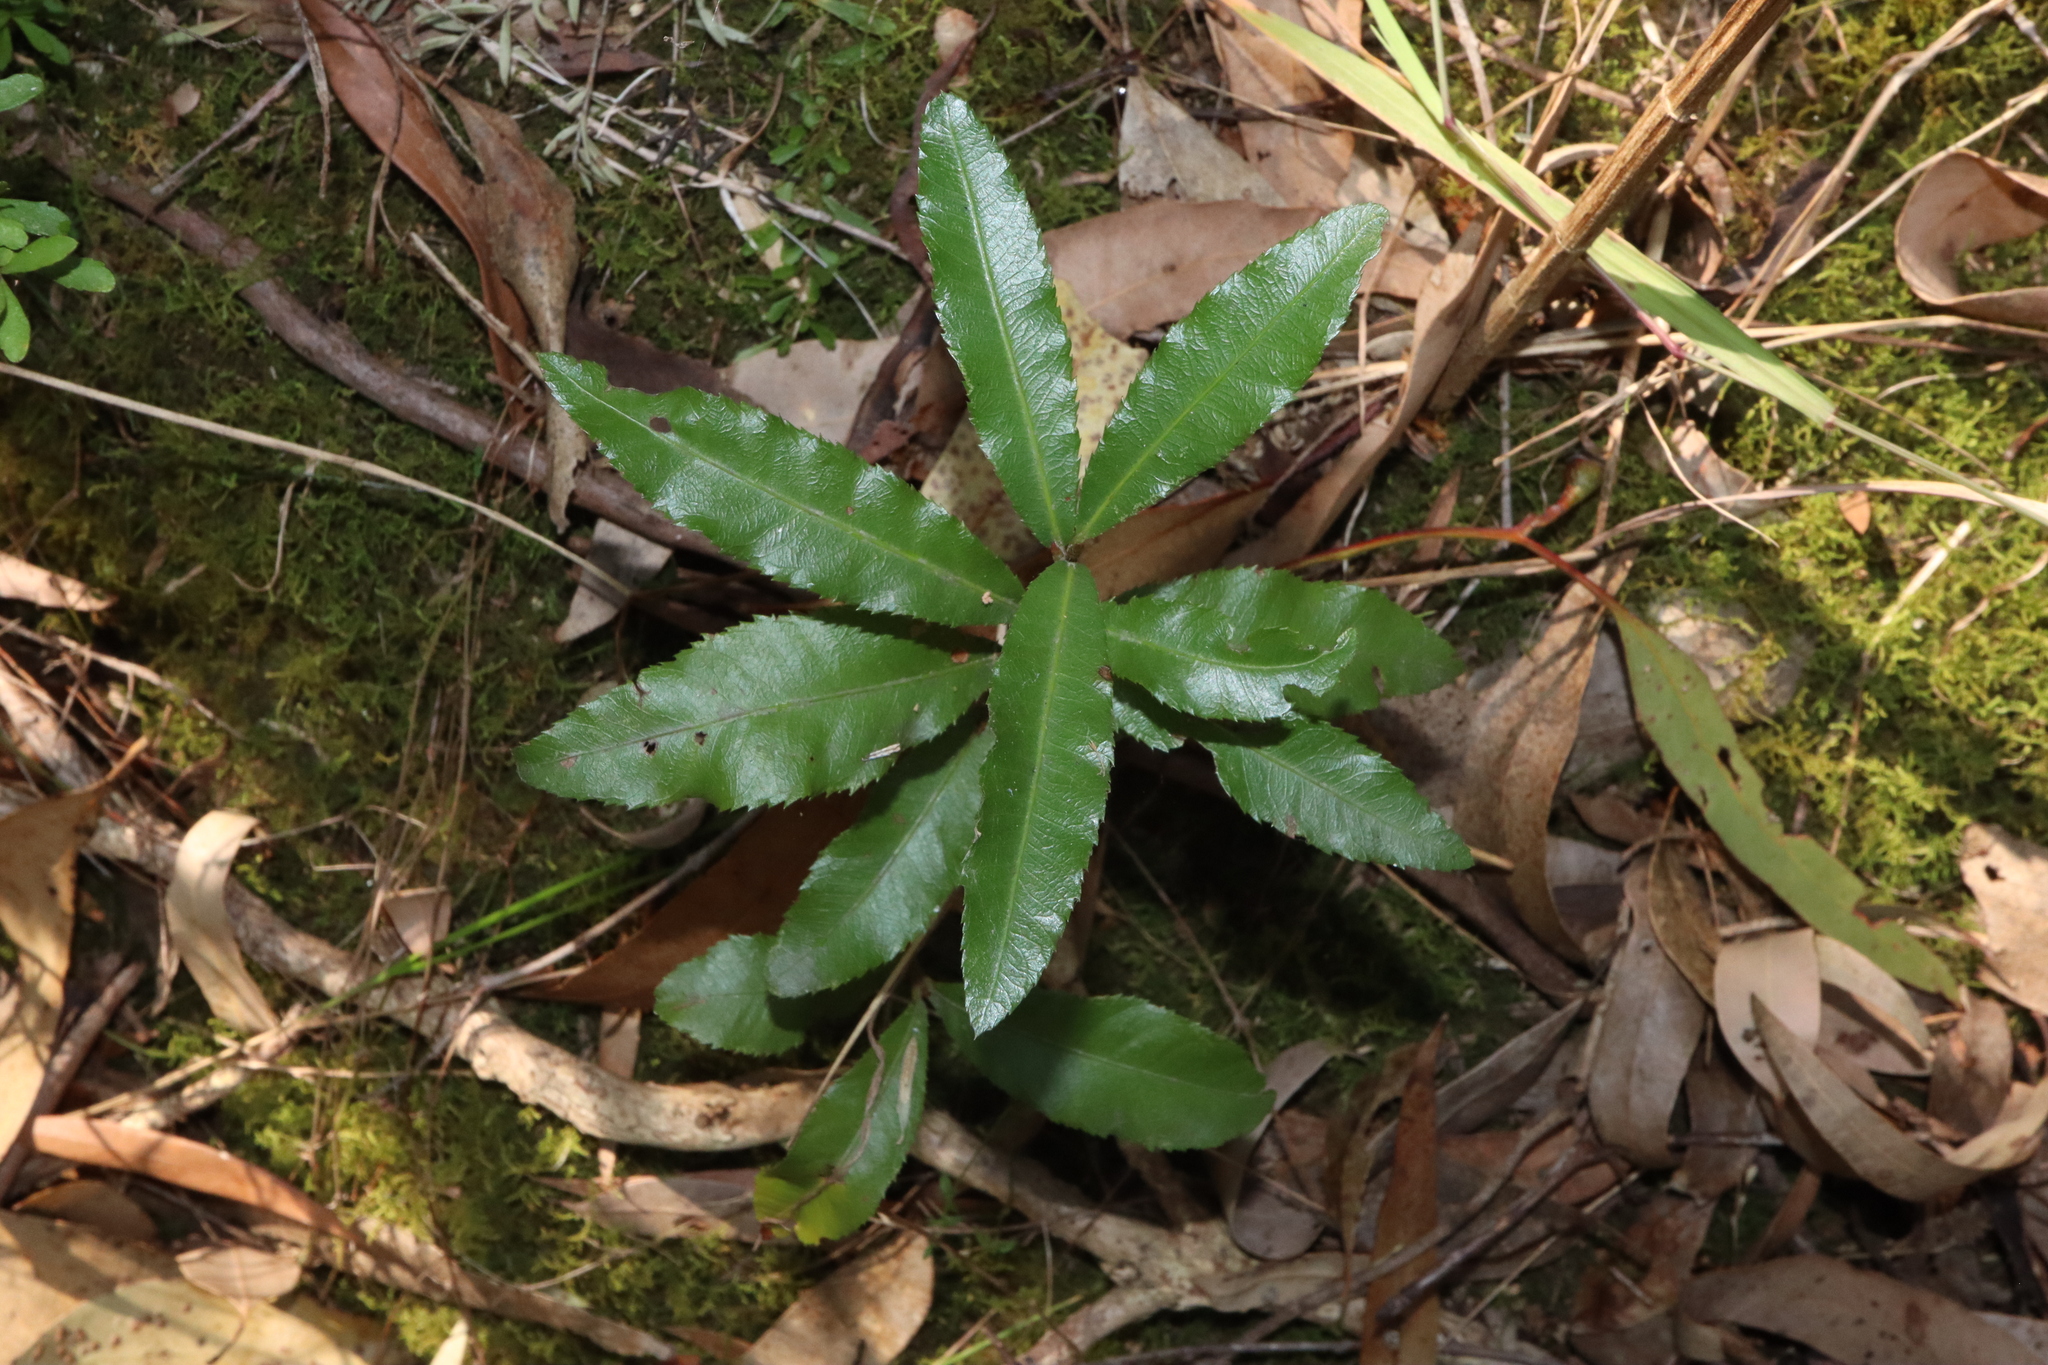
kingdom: Plantae
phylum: Tracheophyta
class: Magnoliopsida
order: Malpighiales
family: Ochnaceae
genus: Ochna
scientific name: Ochna serrulata
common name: Mickey mouse plant
